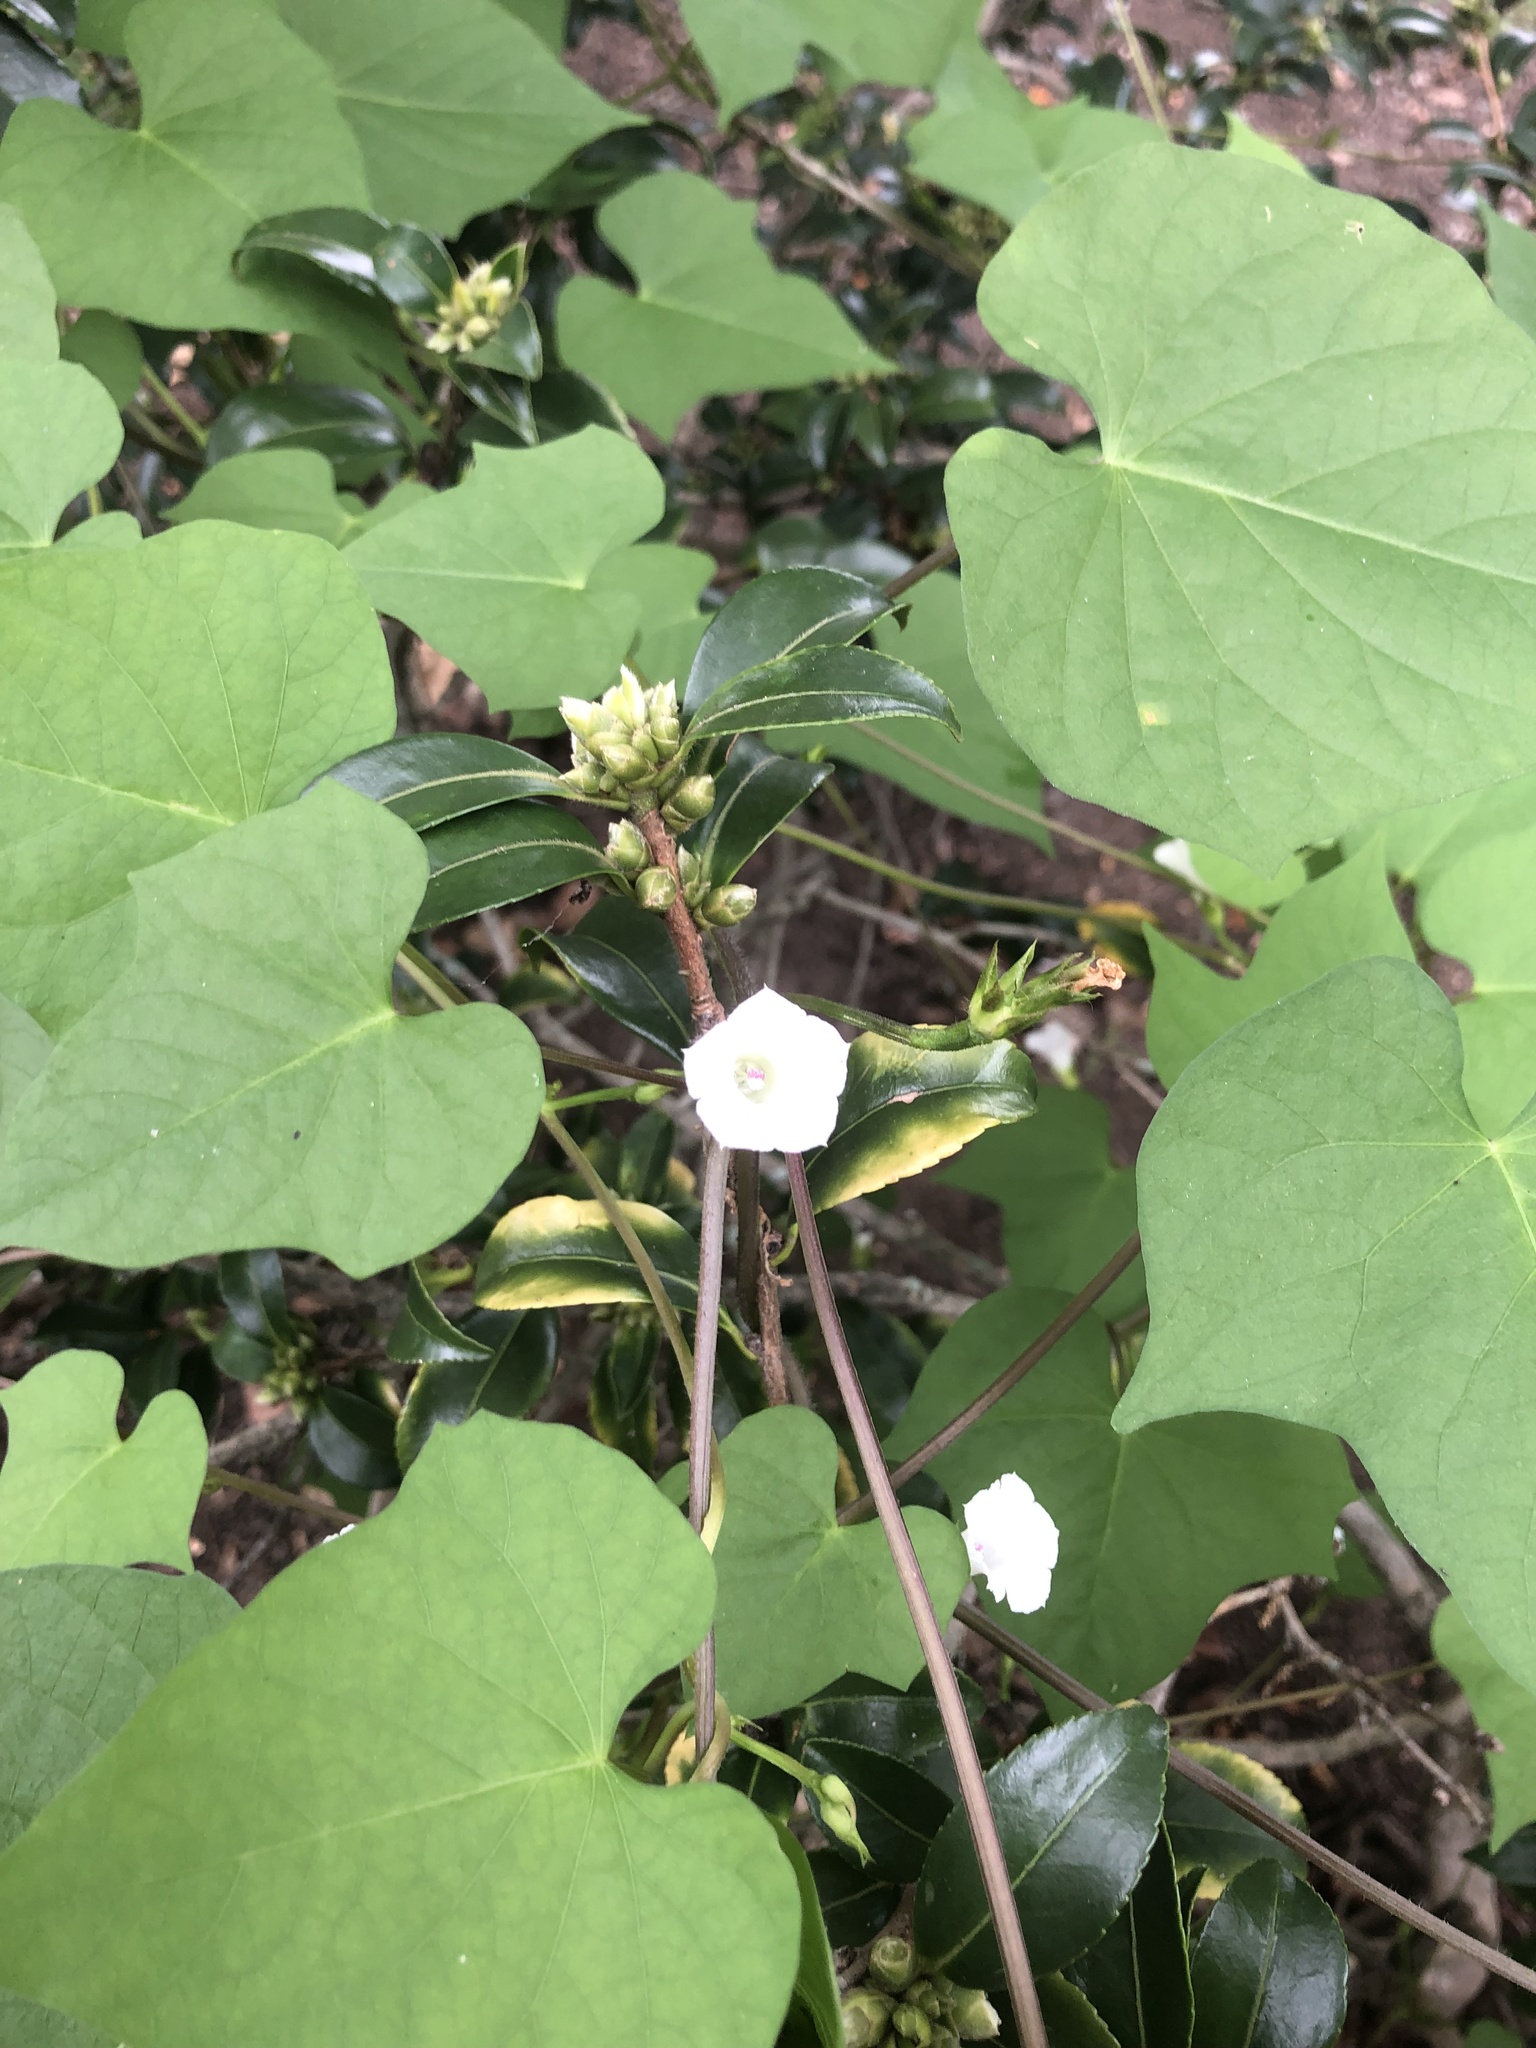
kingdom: Plantae
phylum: Tracheophyta
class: Magnoliopsida
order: Solanales
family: Convolvulaceae
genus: Ipomoea
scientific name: Ipomoea lacunosa
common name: White morning-glory
